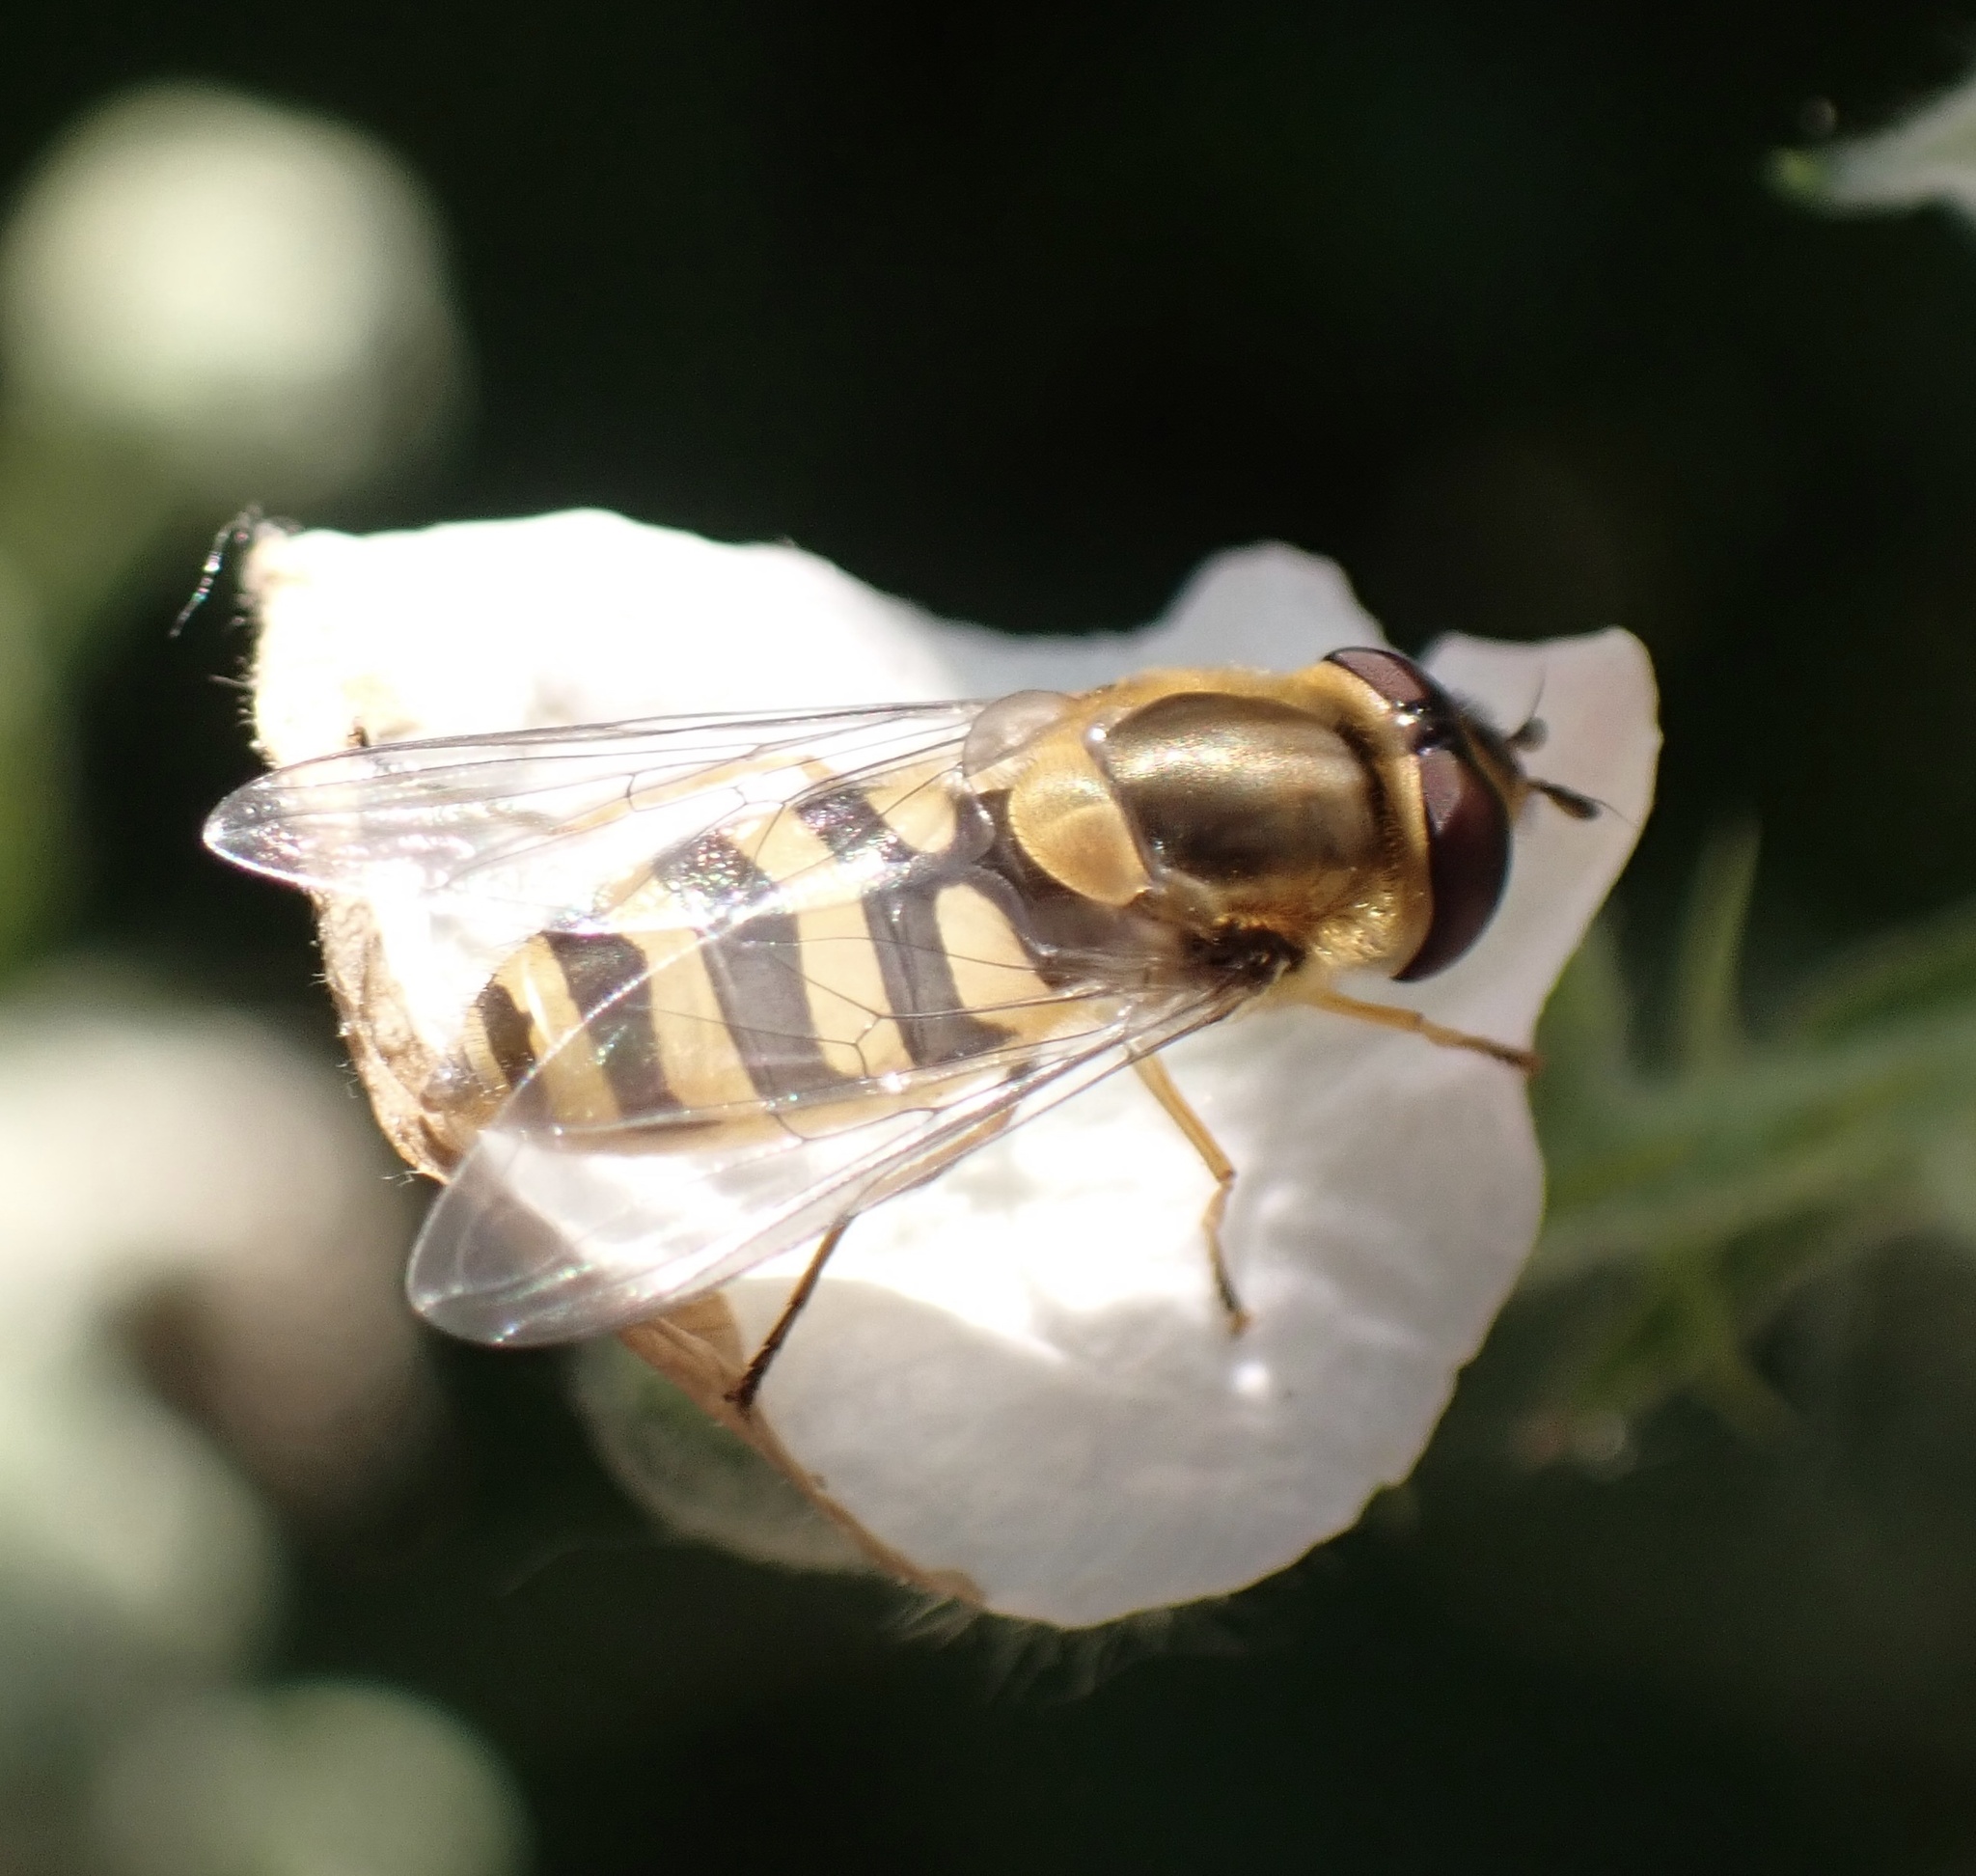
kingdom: Animalia
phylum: Arthropoda
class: Insecta
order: Diptera
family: Syrphidae
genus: Syrphus
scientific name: Syrphus
